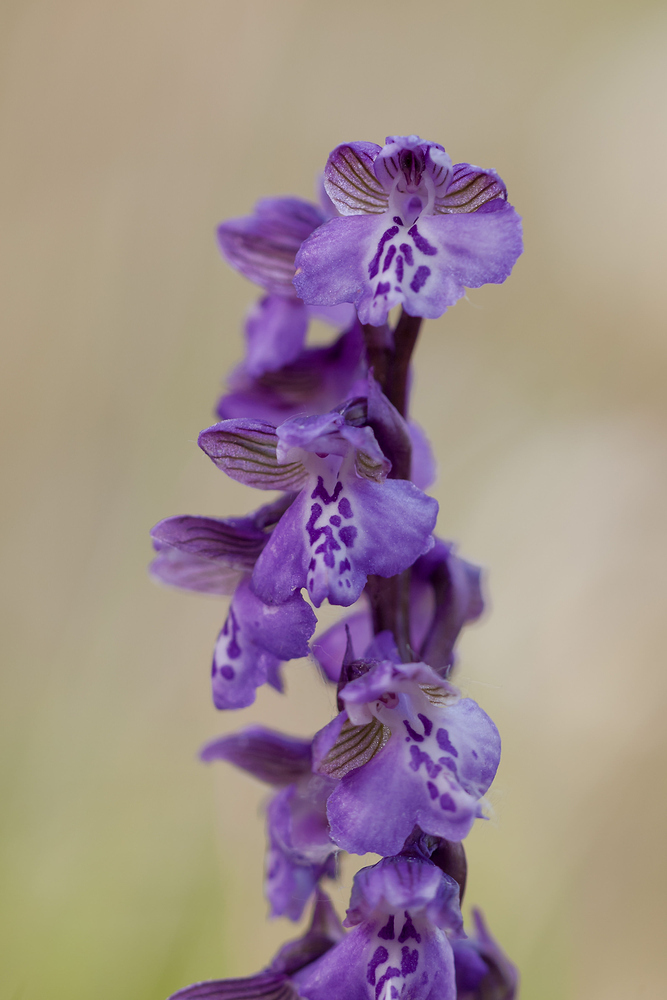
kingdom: Plantae
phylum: Tracheophyta
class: Liliopsida
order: Asparagales
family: Orchidaceae
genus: Anacamptis
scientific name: Anacamptis morio
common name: Green-winged orchid
